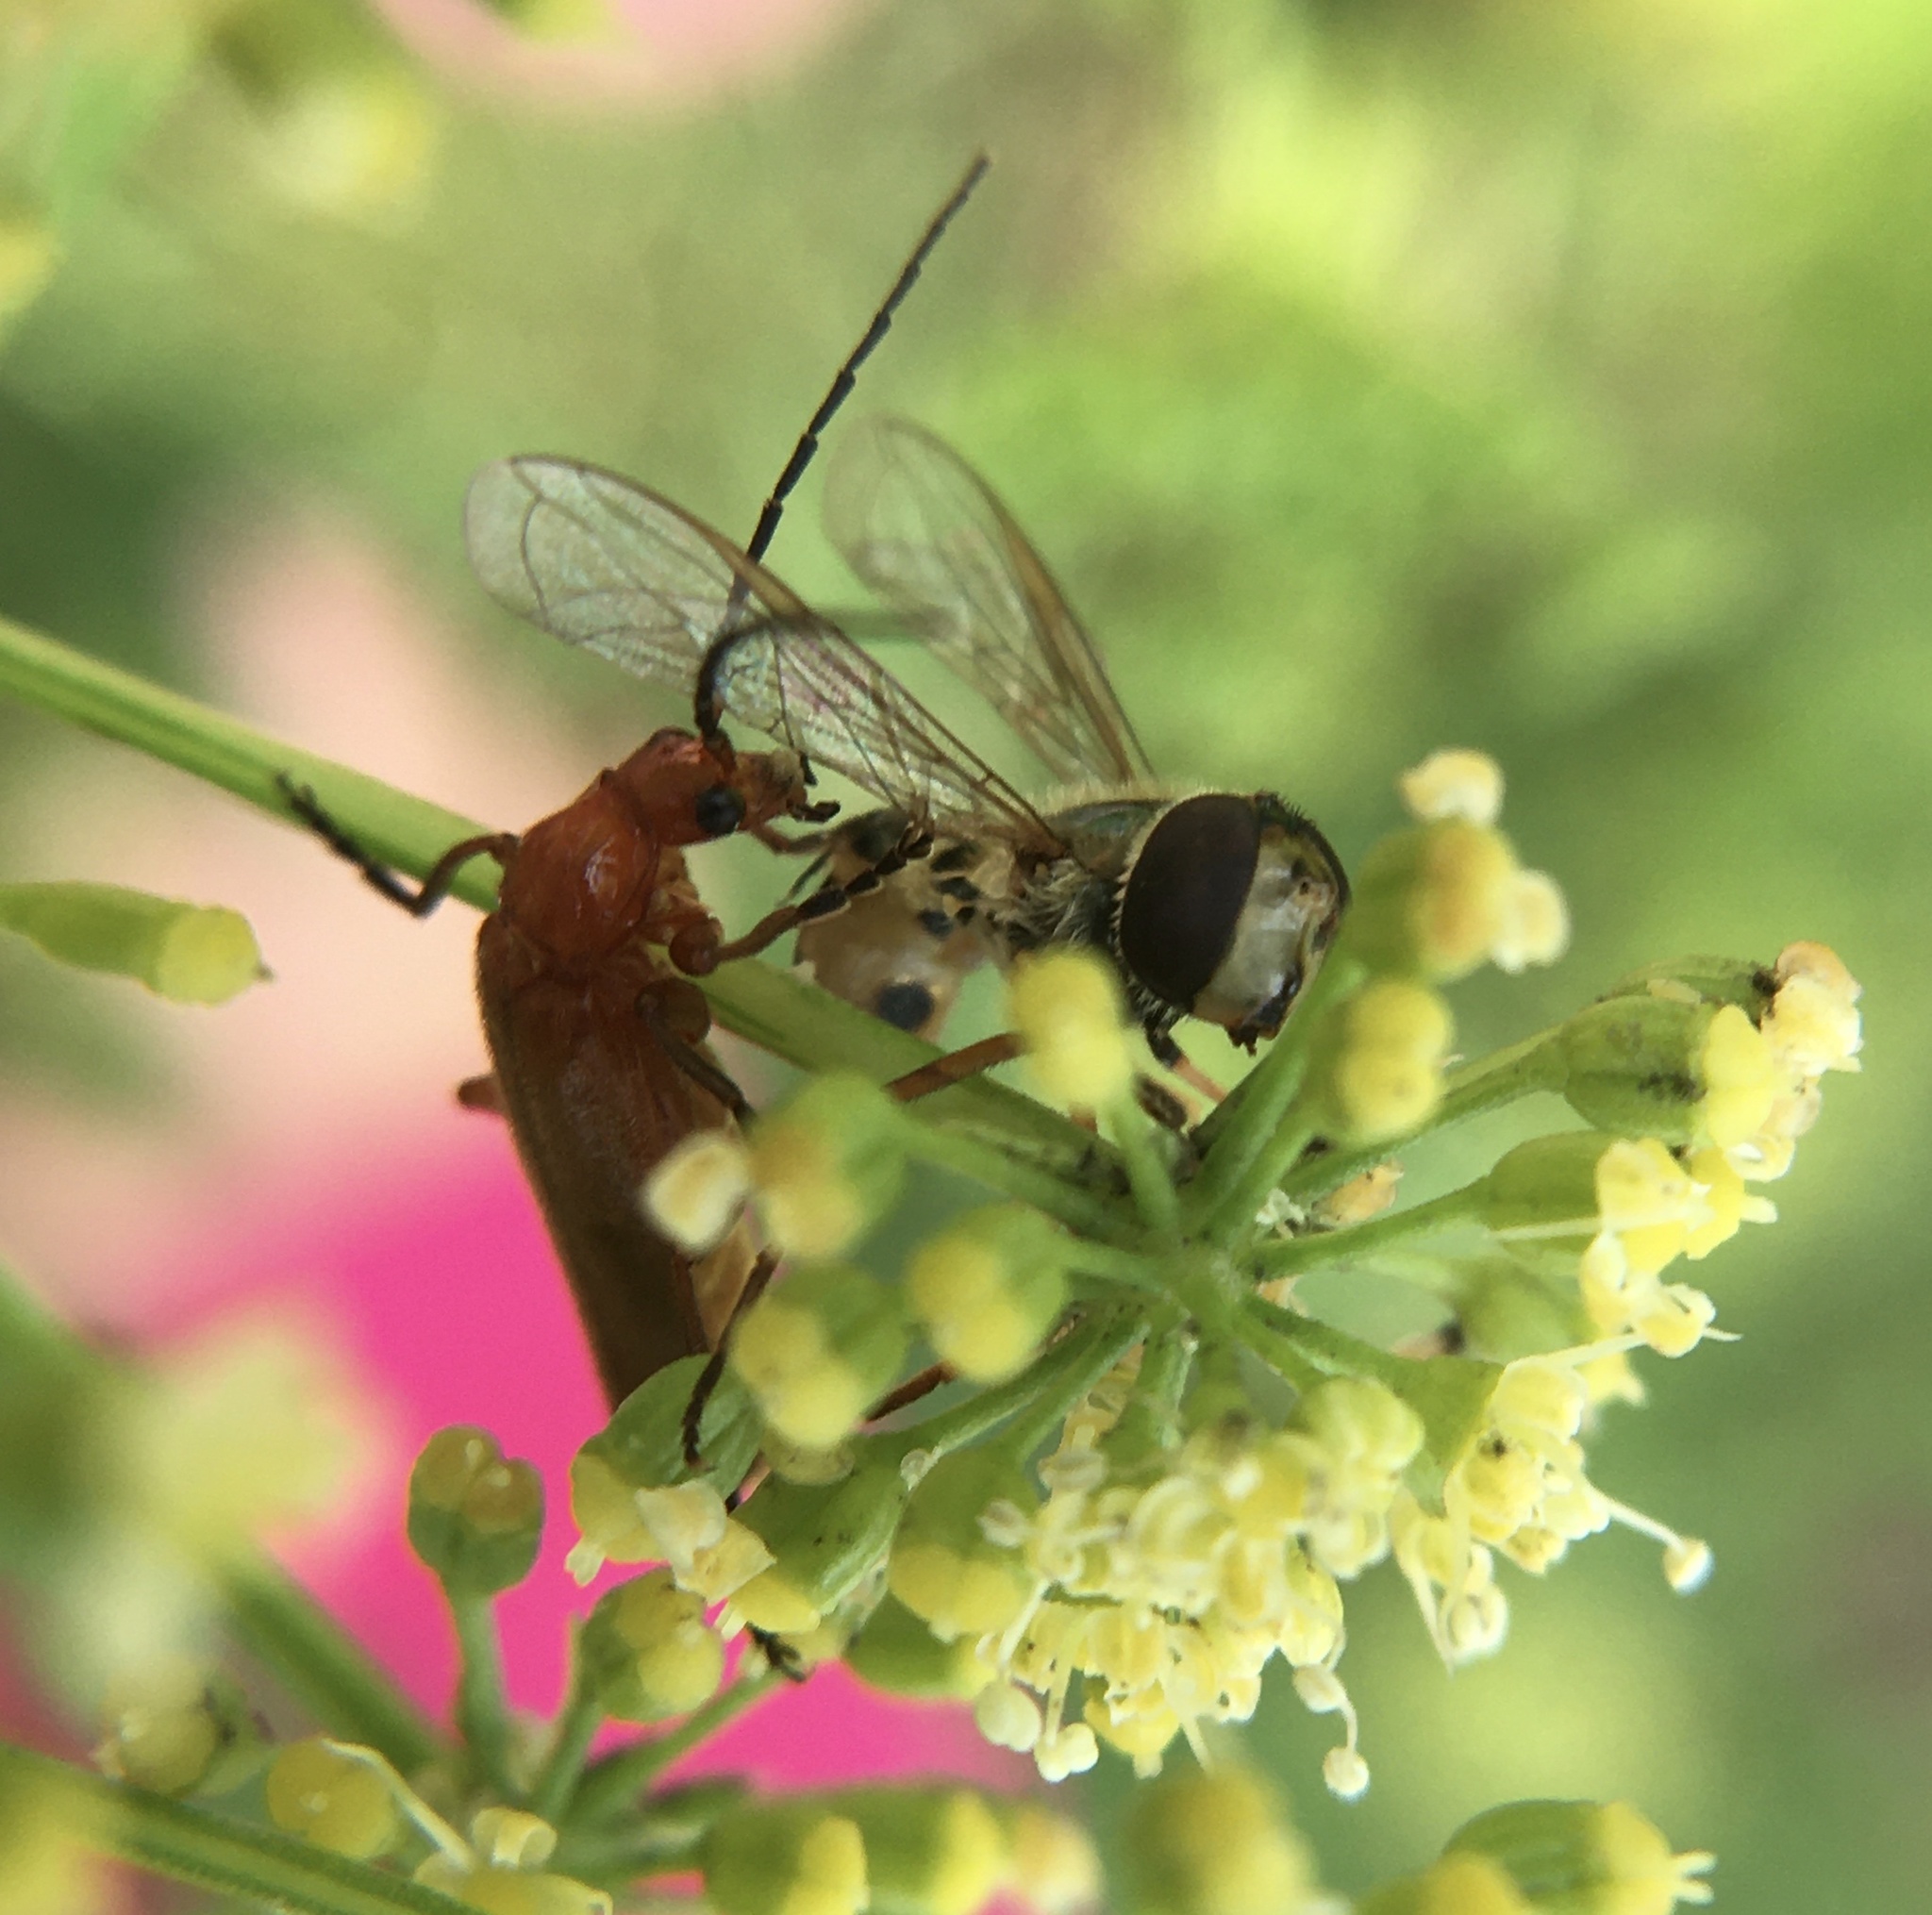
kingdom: Animalia
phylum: Arthropoda
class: Insecta
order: Coleoptera
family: Cantharidae
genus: Rhagonycha
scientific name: Rhagonycha fulva
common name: Common red soldier beetle
